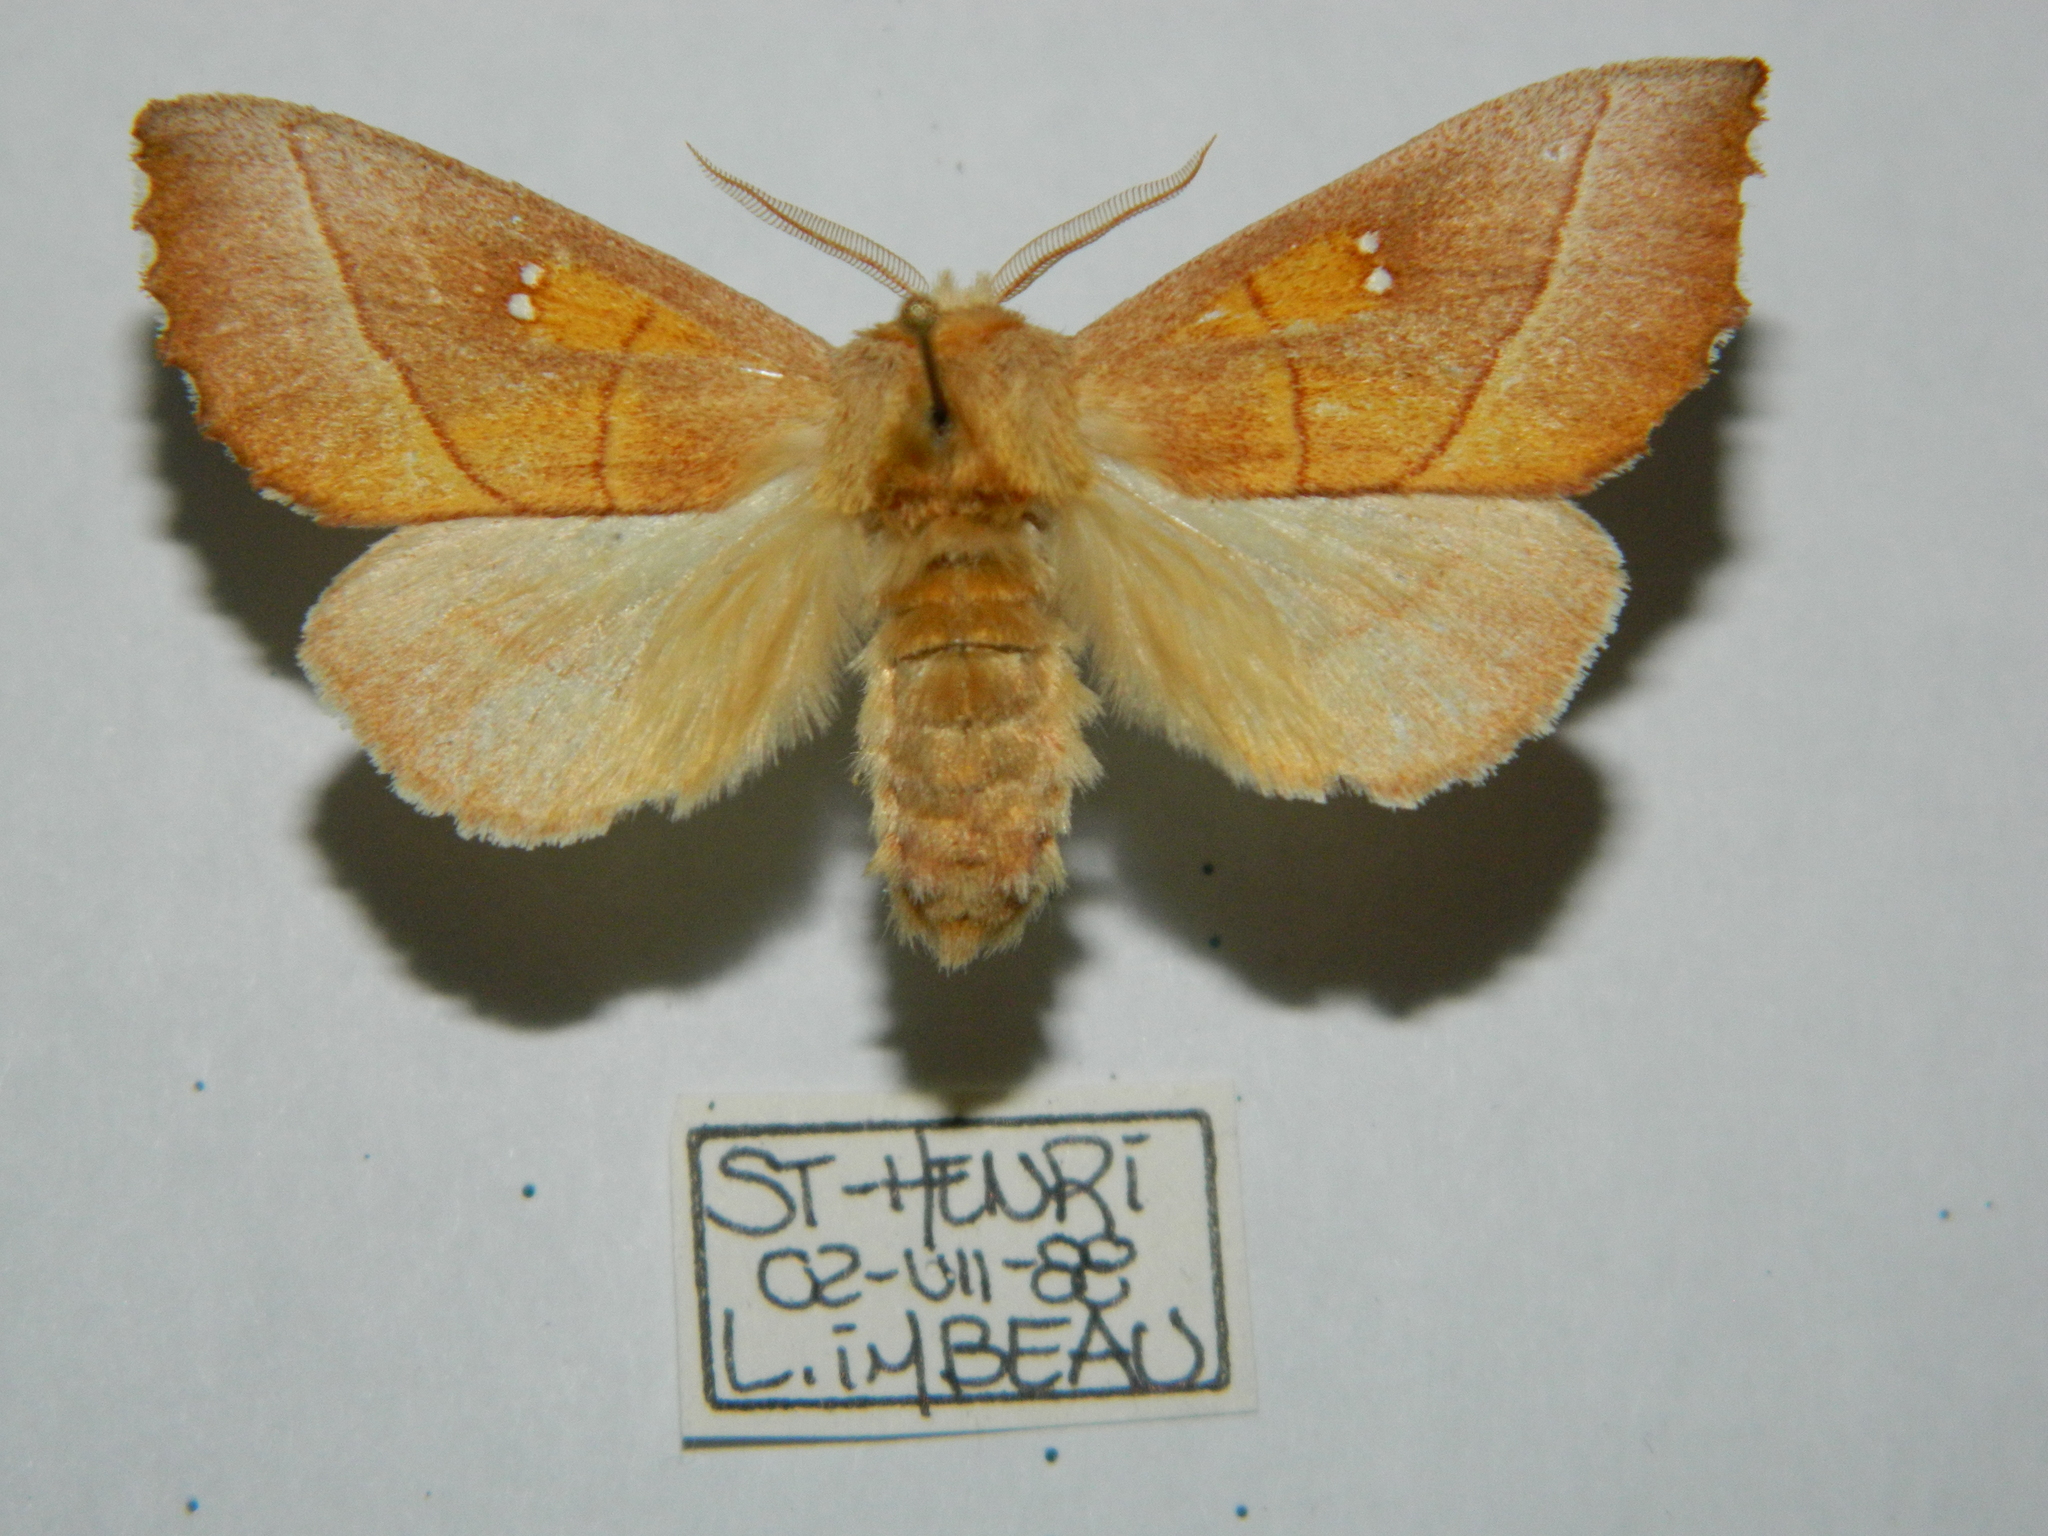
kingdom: Animalia
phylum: Arthropoda
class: Insecta
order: Lepidoptera
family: Notodontidae
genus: Nadata
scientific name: Nadata gibbosa
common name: White-dotted prominent
